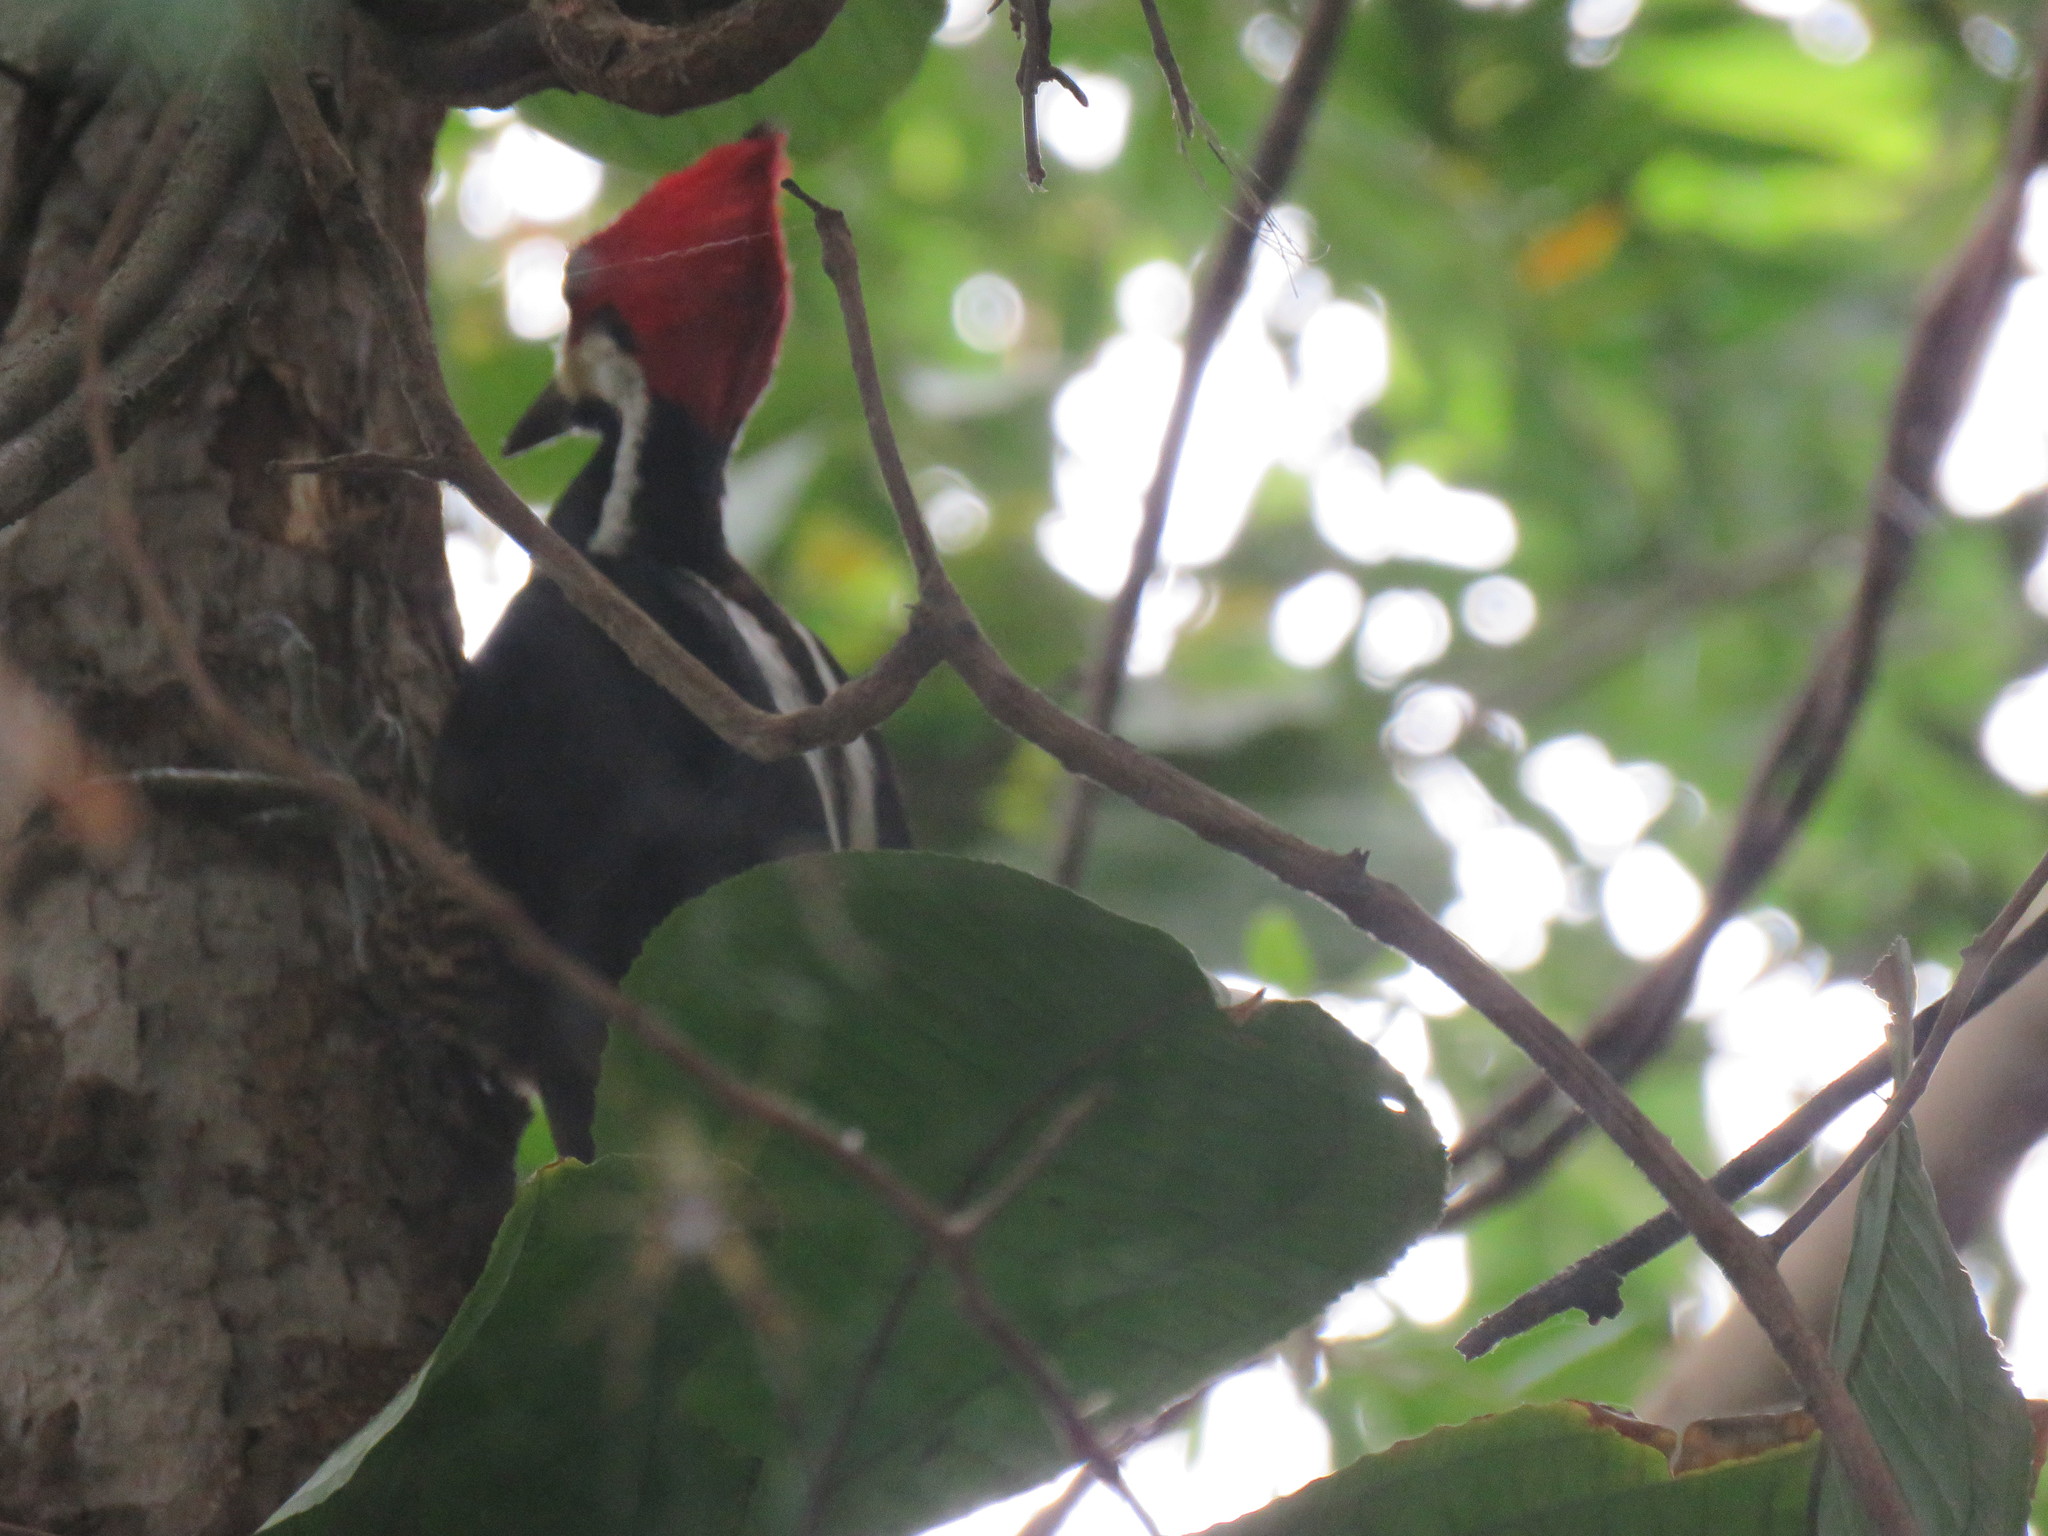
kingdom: Animalia
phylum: Chordata
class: Aves
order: Piciformes
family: Picidae
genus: Campephilus
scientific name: Campephilus melanoleucos
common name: Crimson-crested woodpecker
